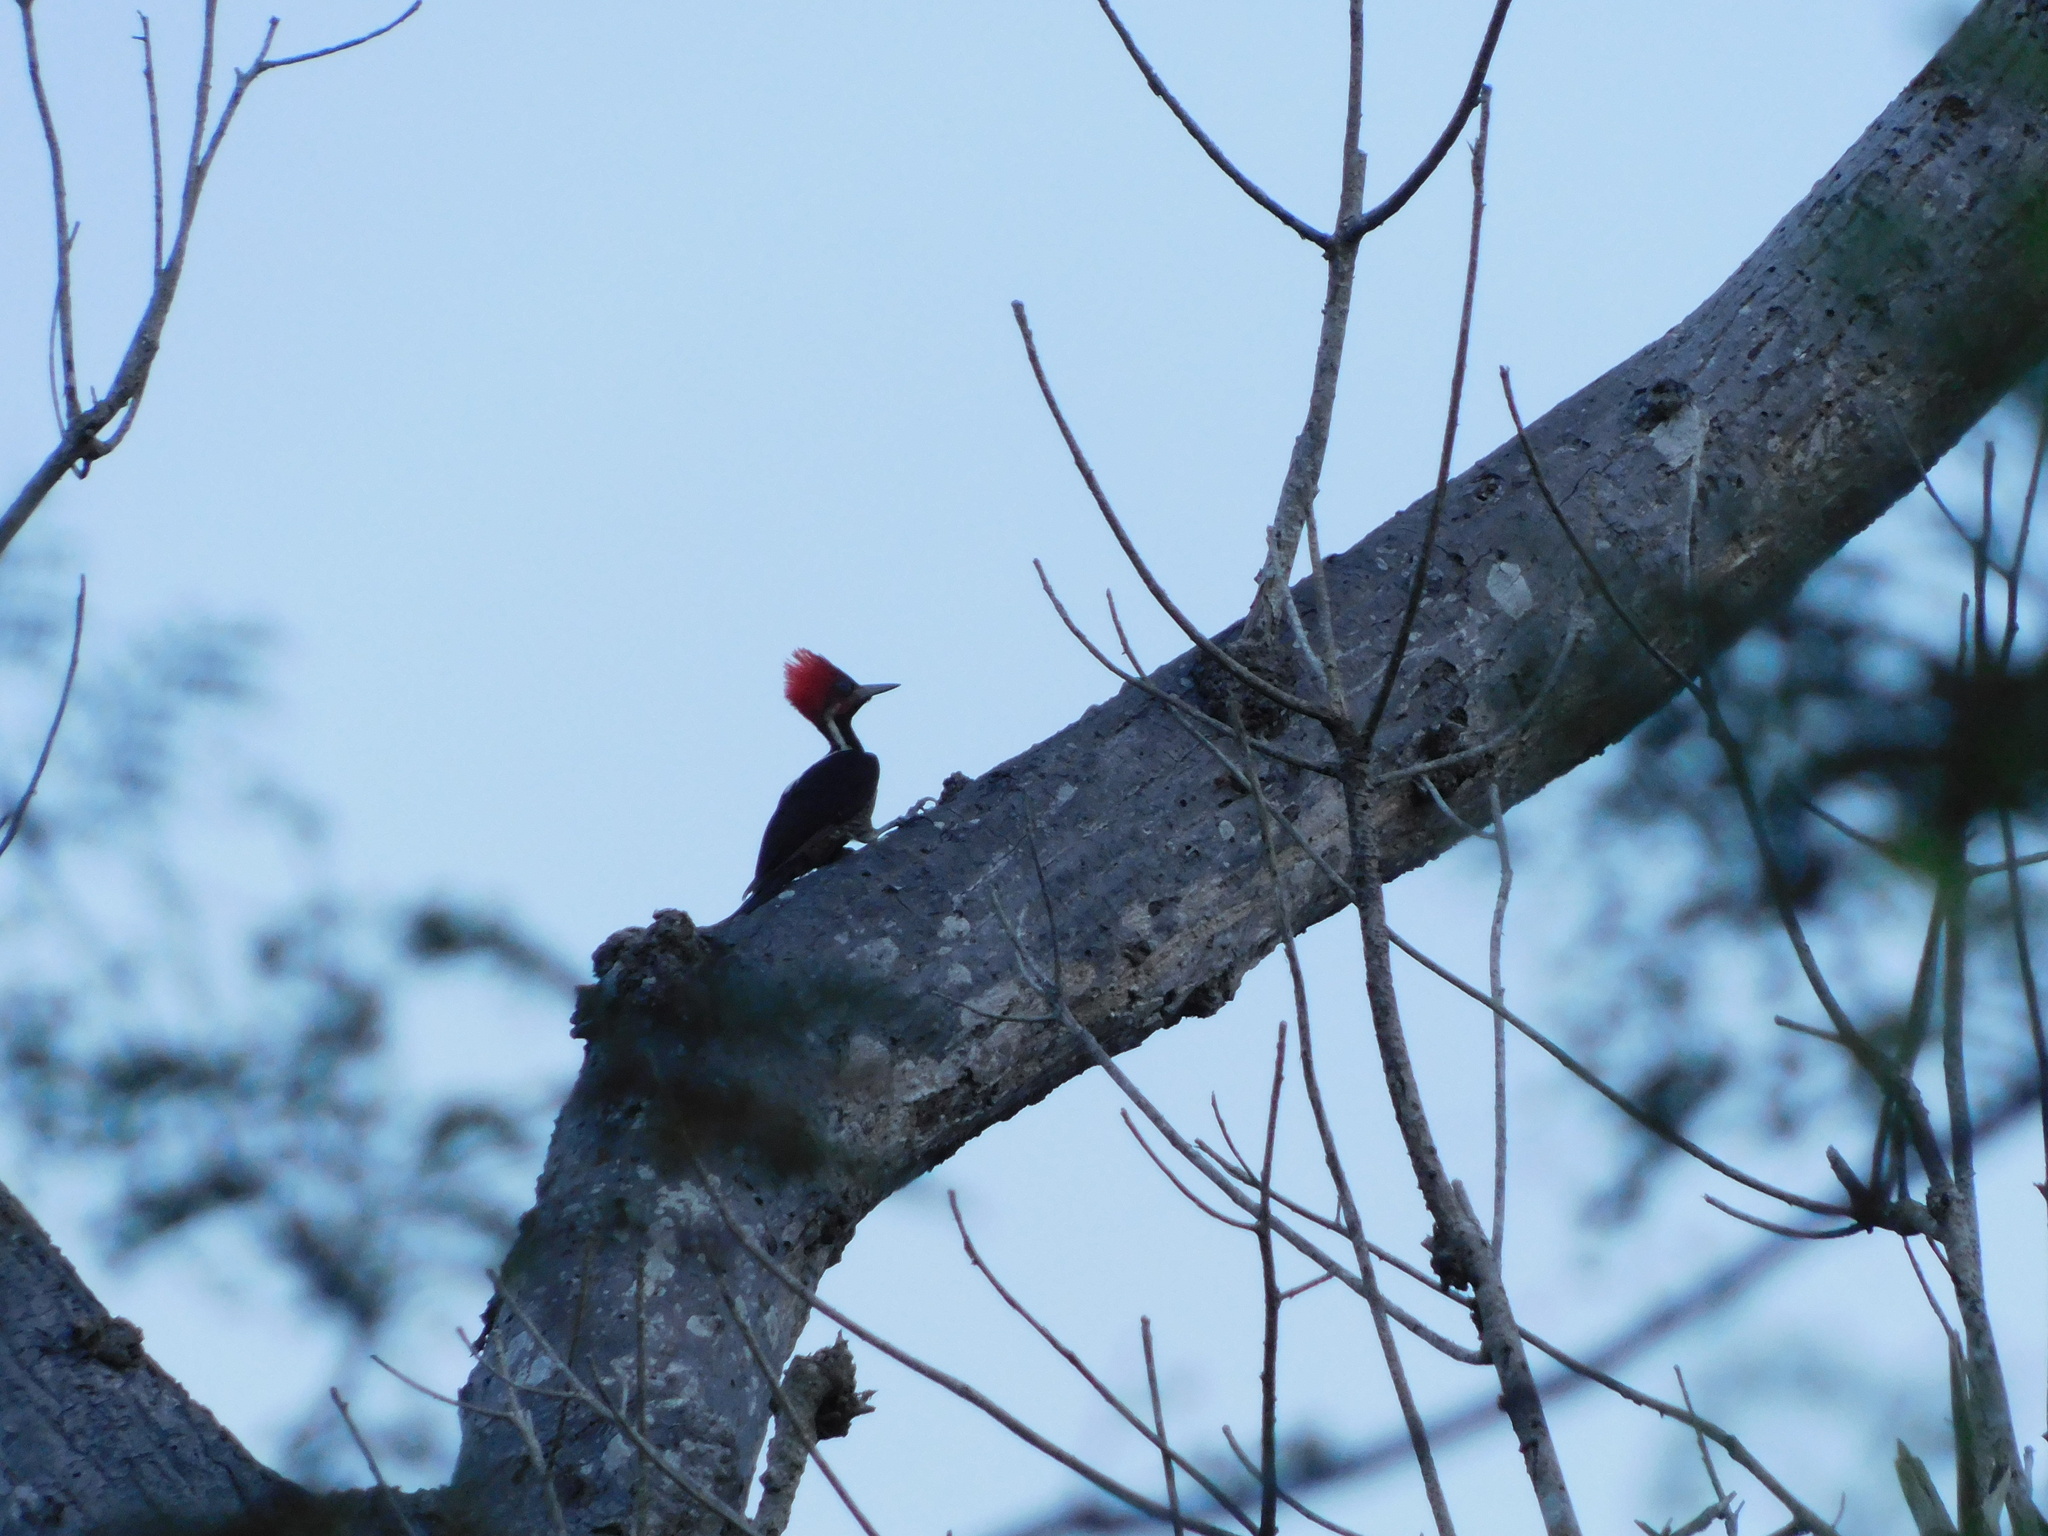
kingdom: Animalia
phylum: Chordata
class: Aves
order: Piciformes
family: Picidae
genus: Campephilus
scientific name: Campephilus guatemalensis
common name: Pale-billed woodpecker
